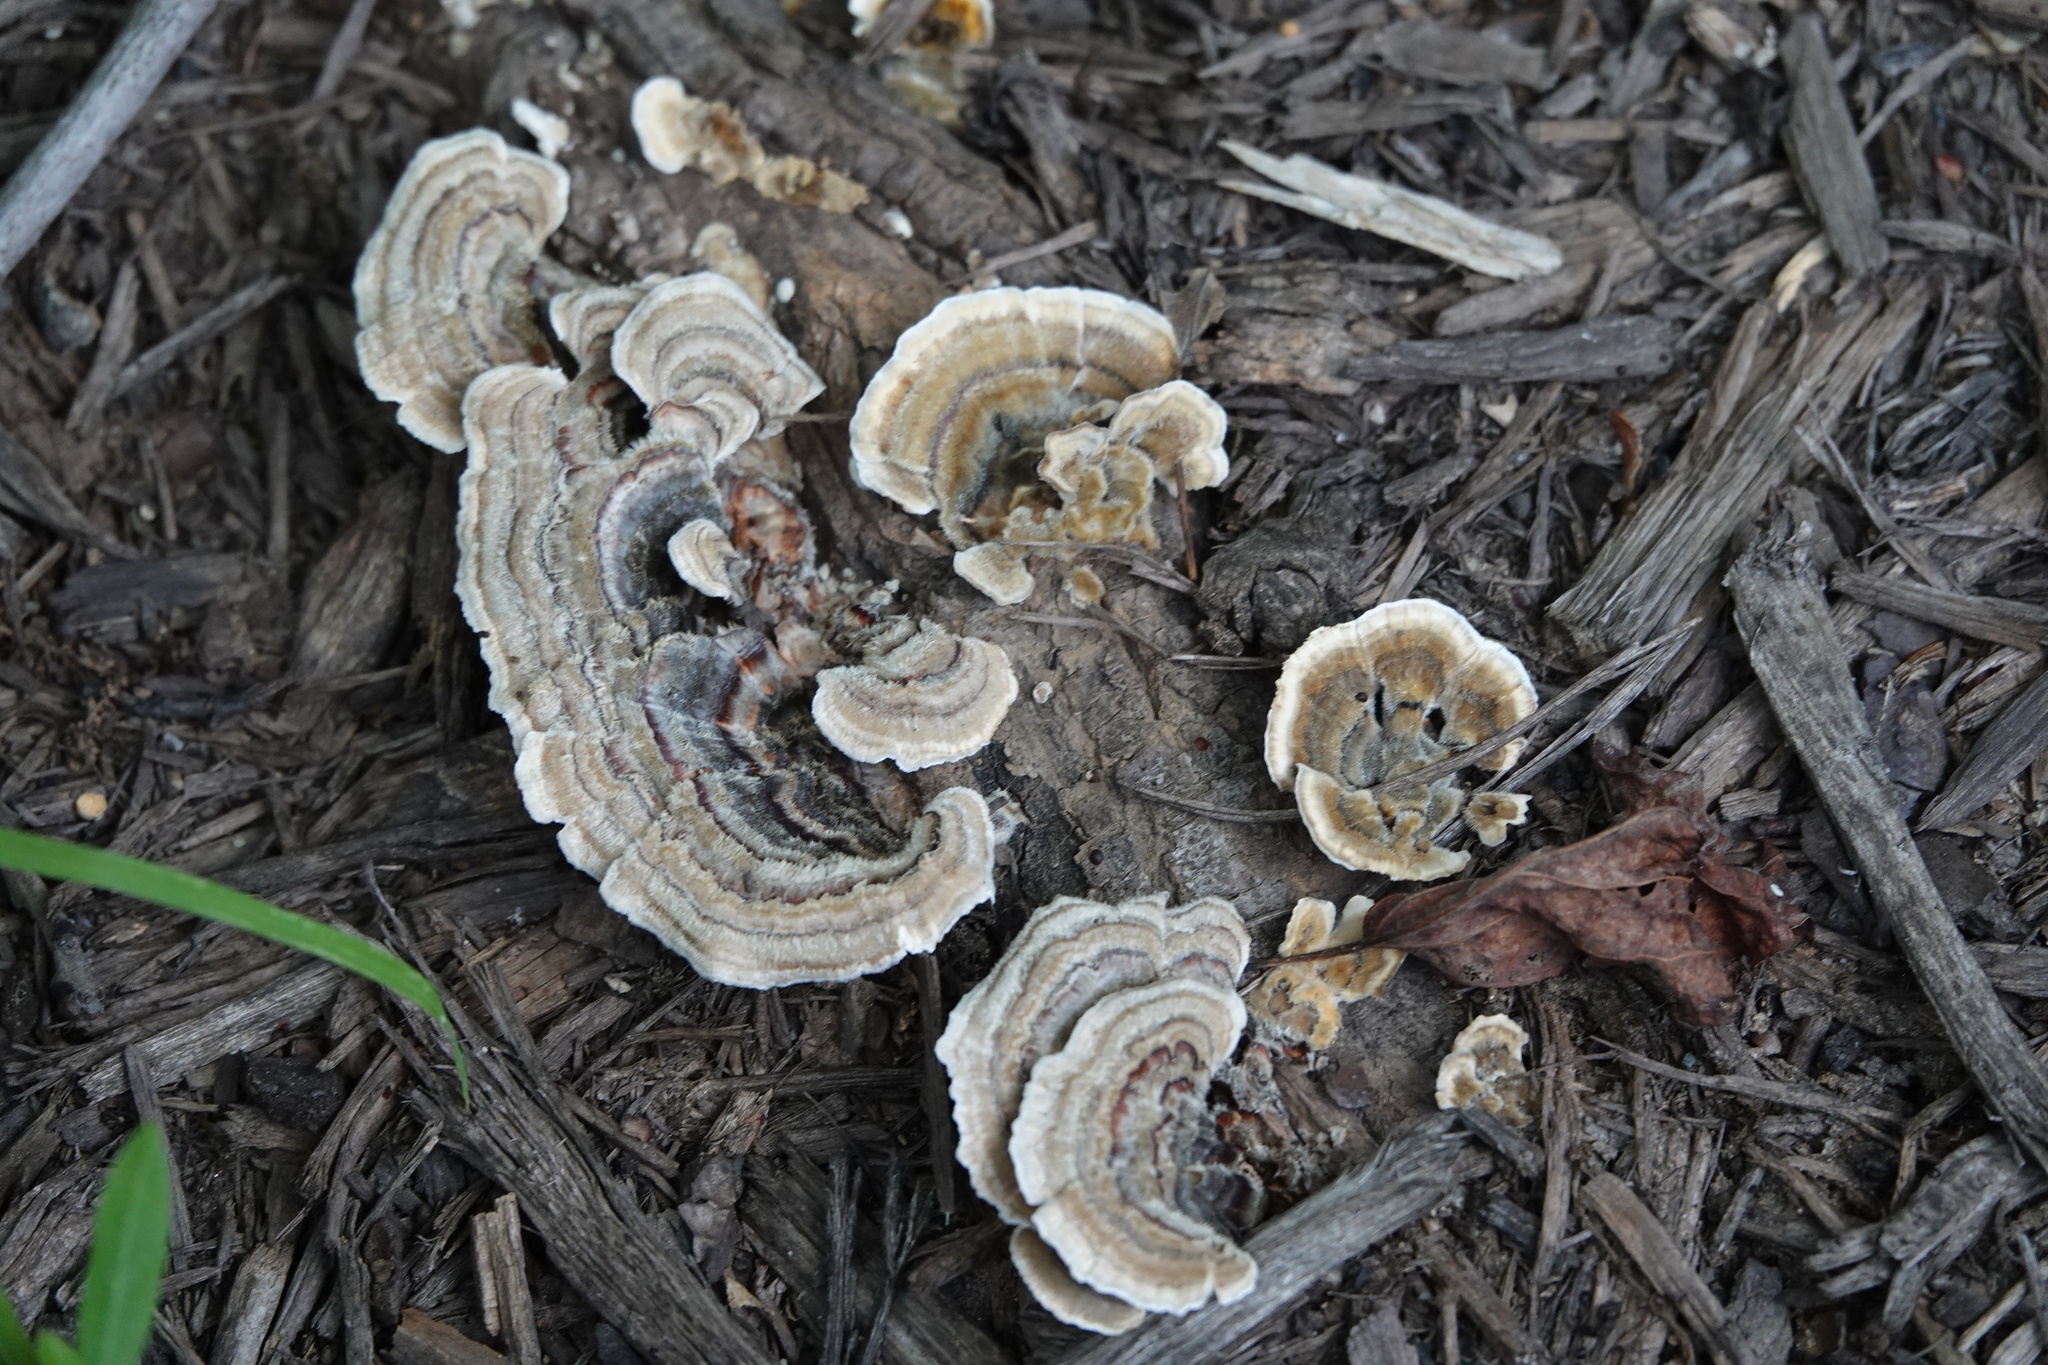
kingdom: Fungi
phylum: Basidiomycota
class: Agaricomycetes
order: Polyporales
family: Polyporaceae
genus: Trametes
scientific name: Trametes versicolor
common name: Turkeytail
